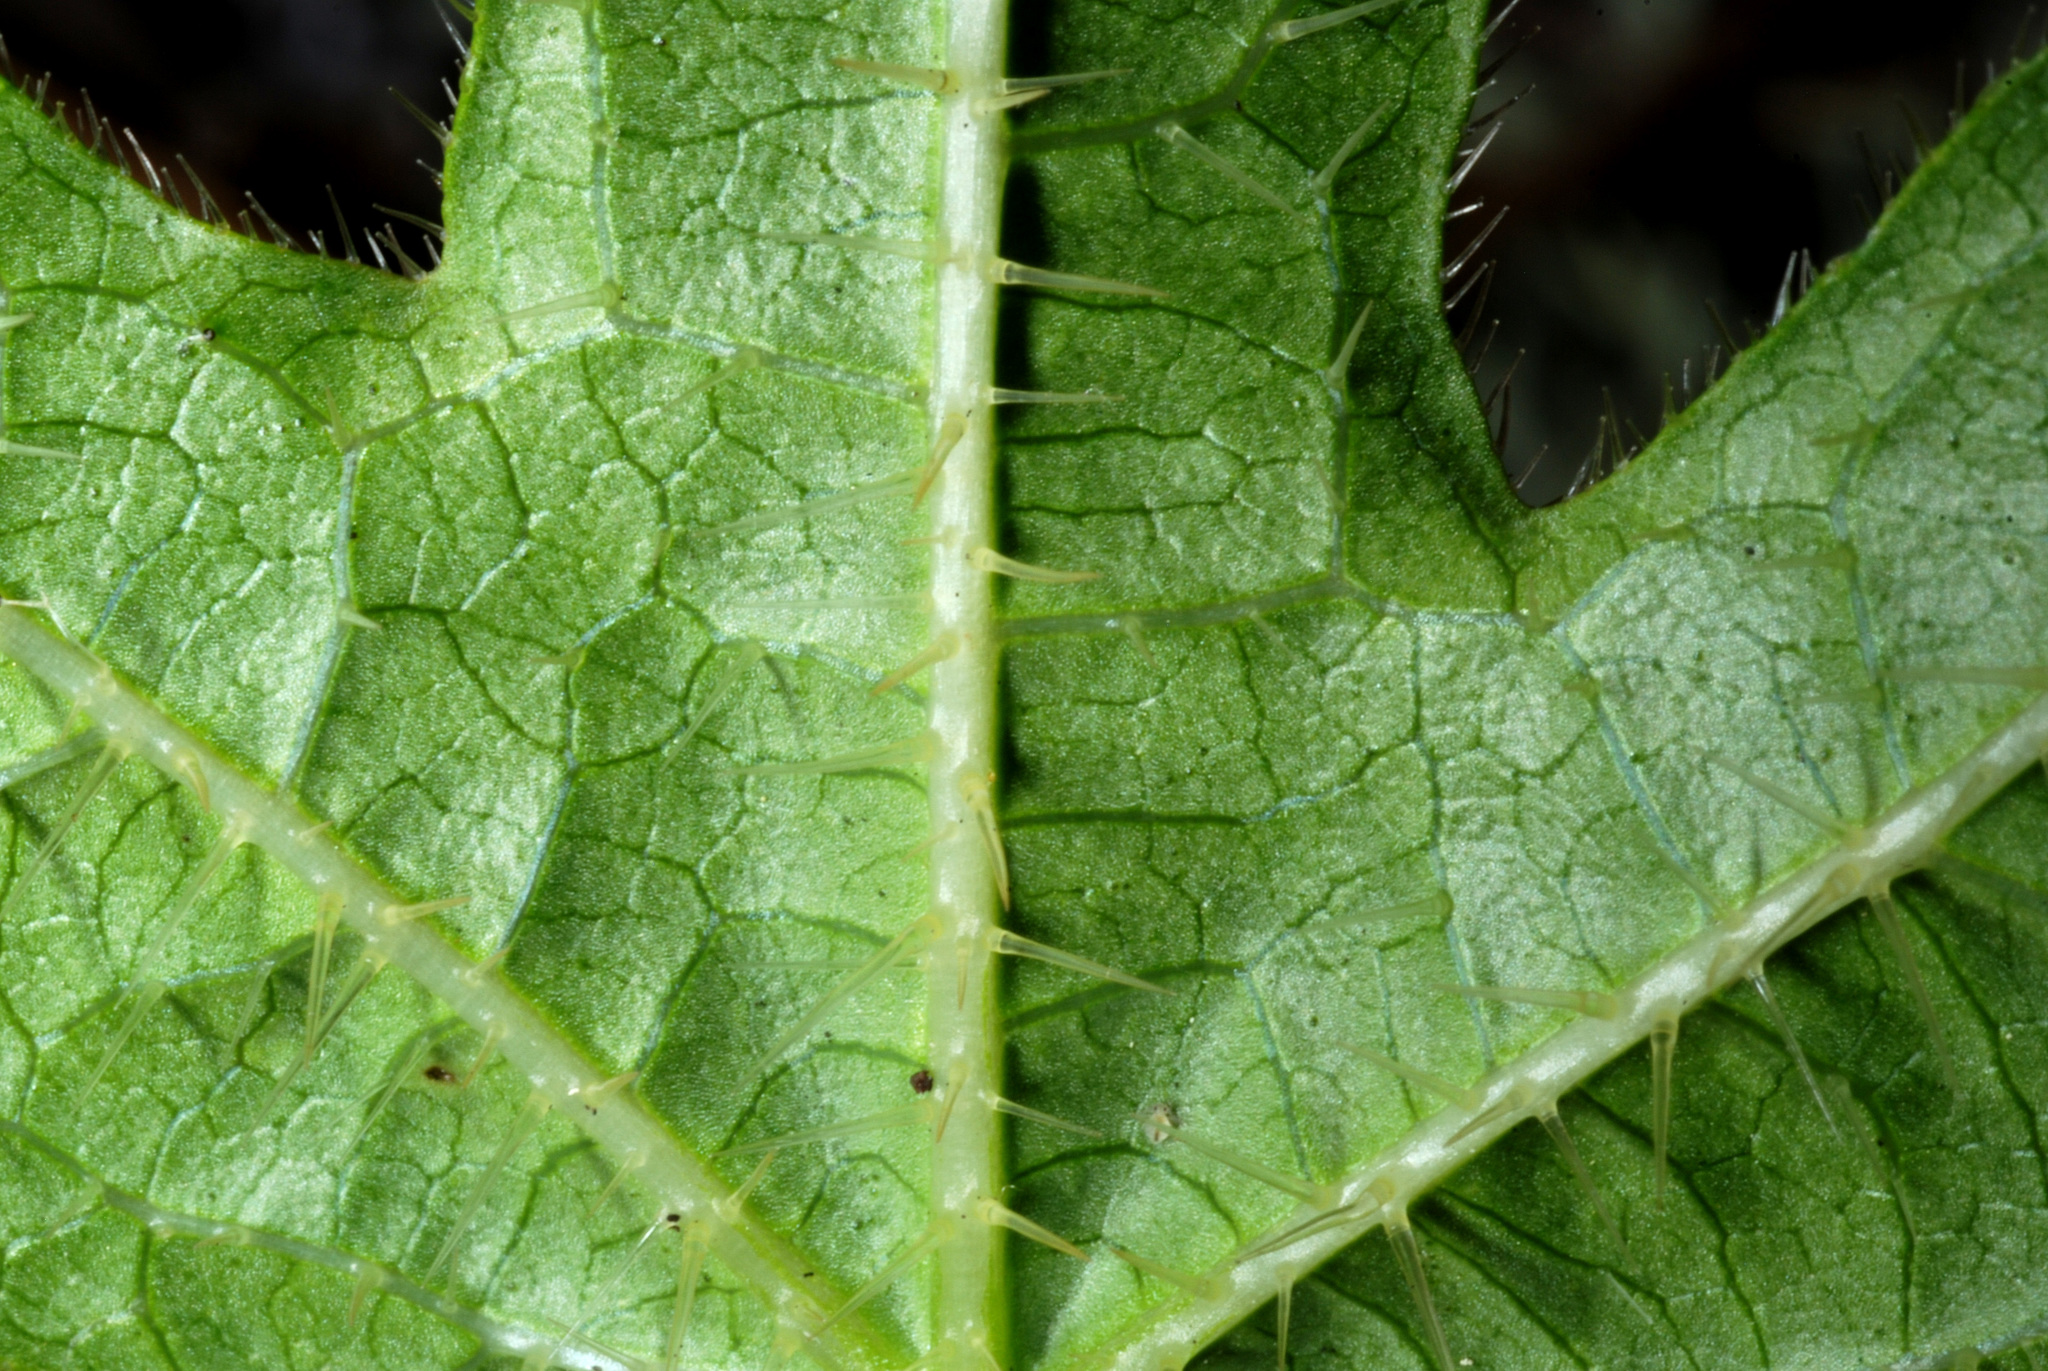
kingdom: Plantae
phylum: Tracheophyta
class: Magnoliopsida
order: Malpighiales
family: Euphorbiaceae
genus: Cnidoscolus
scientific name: Cnidoscolus stimulosus
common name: Bull-nettle
